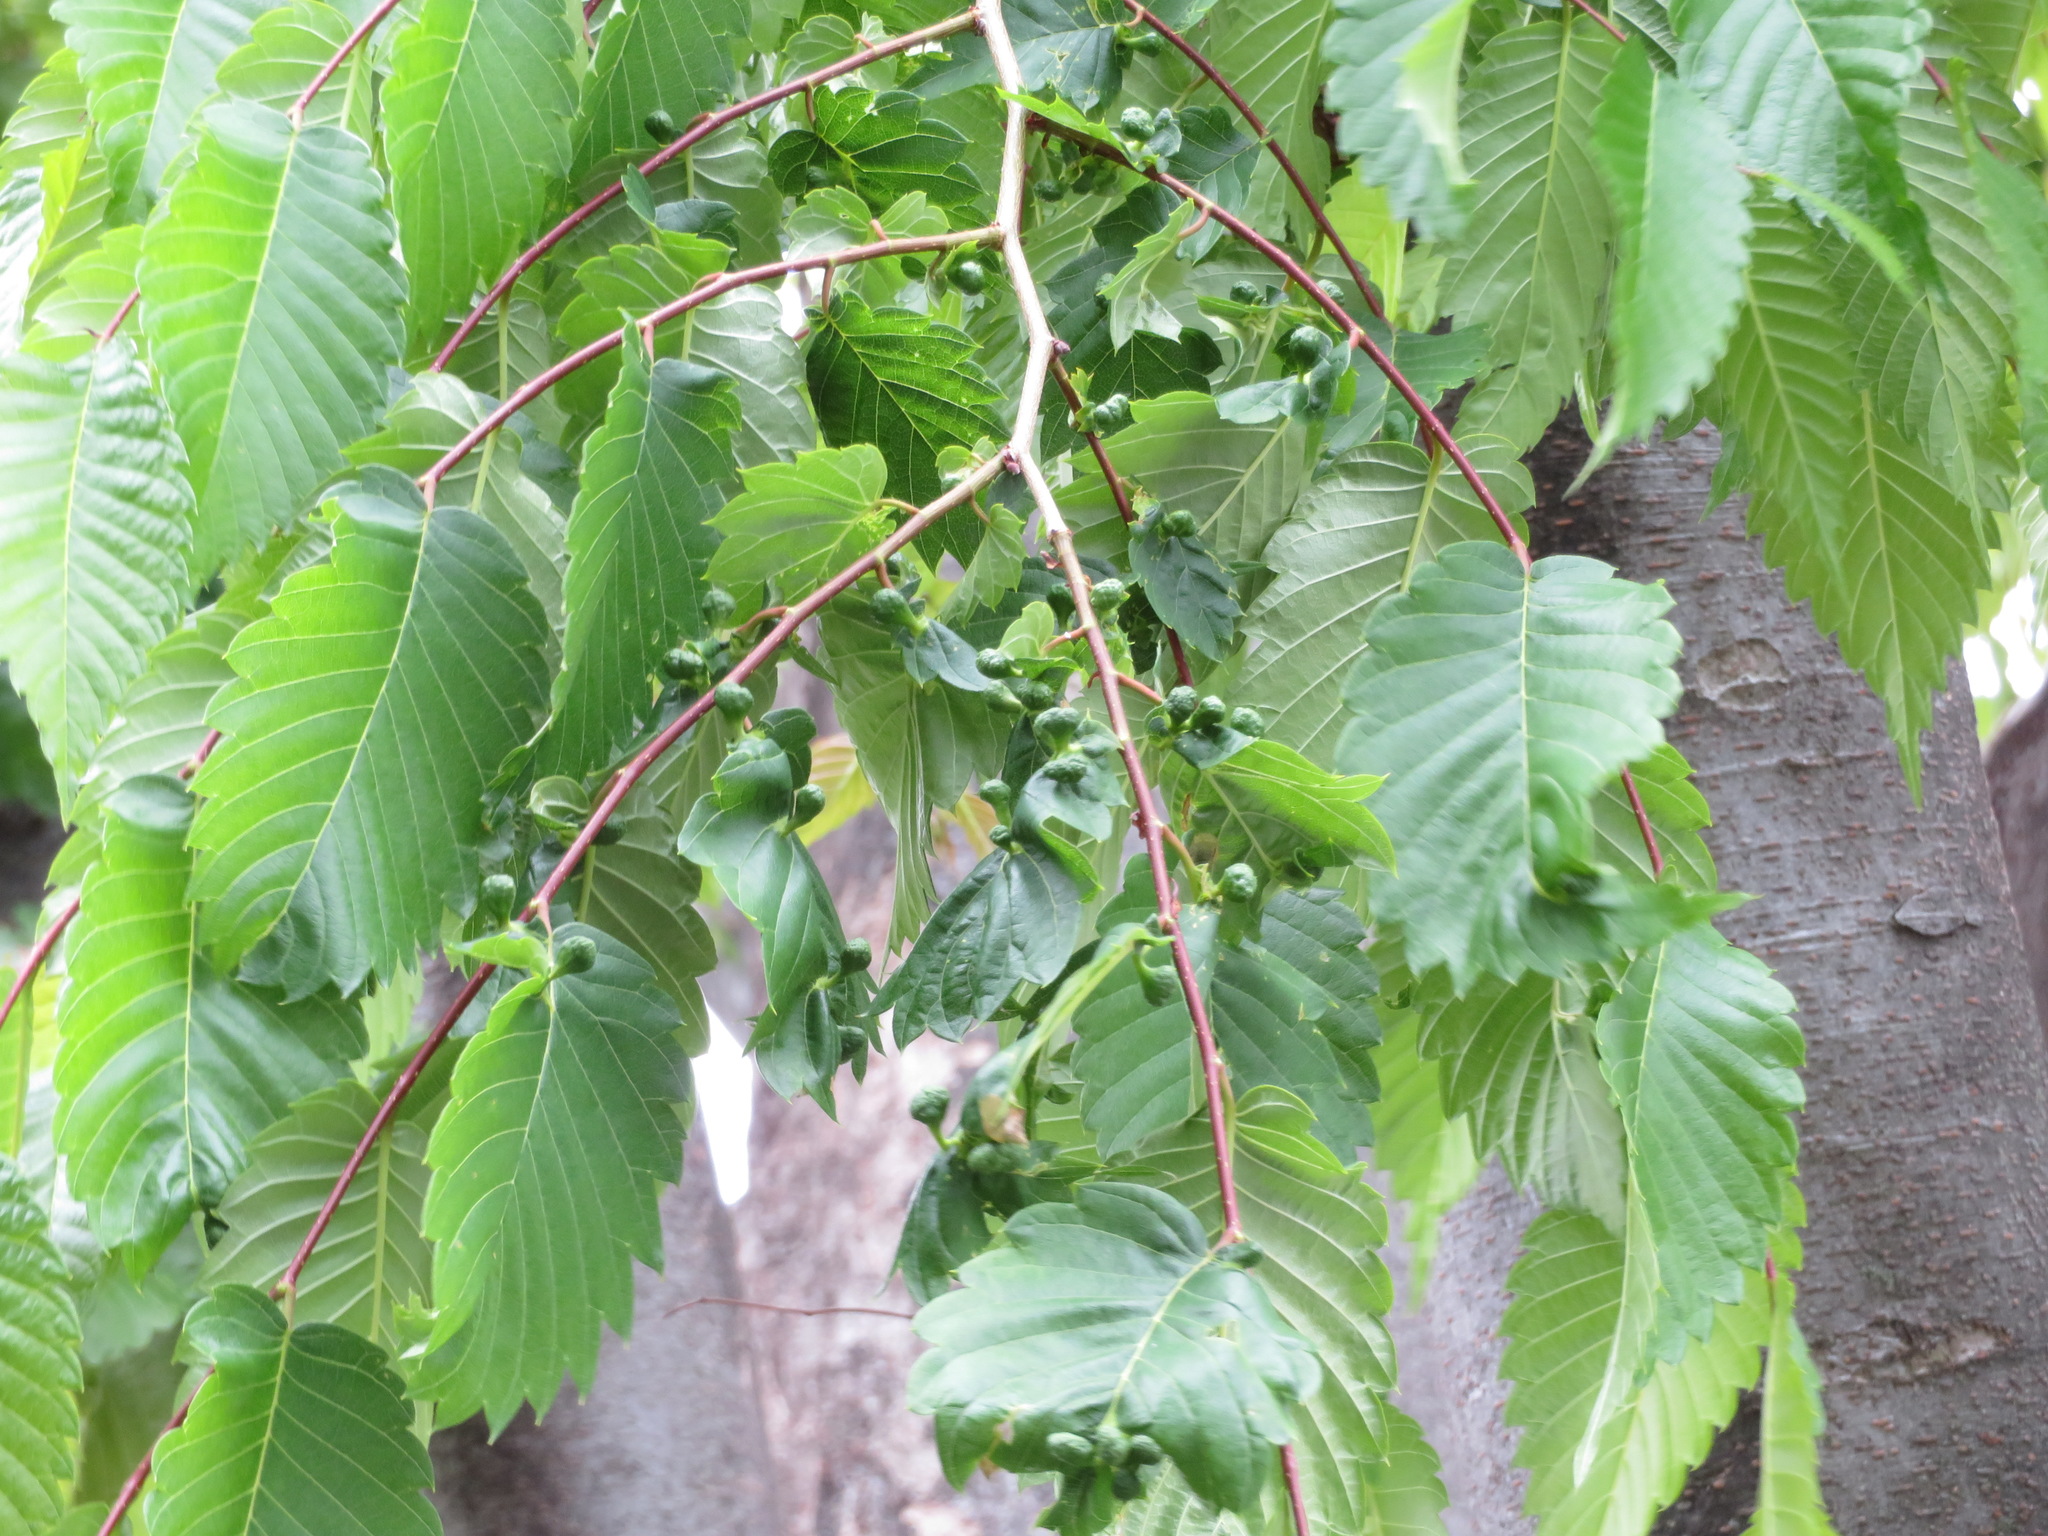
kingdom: Plantae
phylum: Tracheophyta
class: Magnoliopsida
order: Rosales
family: Ulmaceae
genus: Zelkova
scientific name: Zelkova serrata
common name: Japanese zelkova
